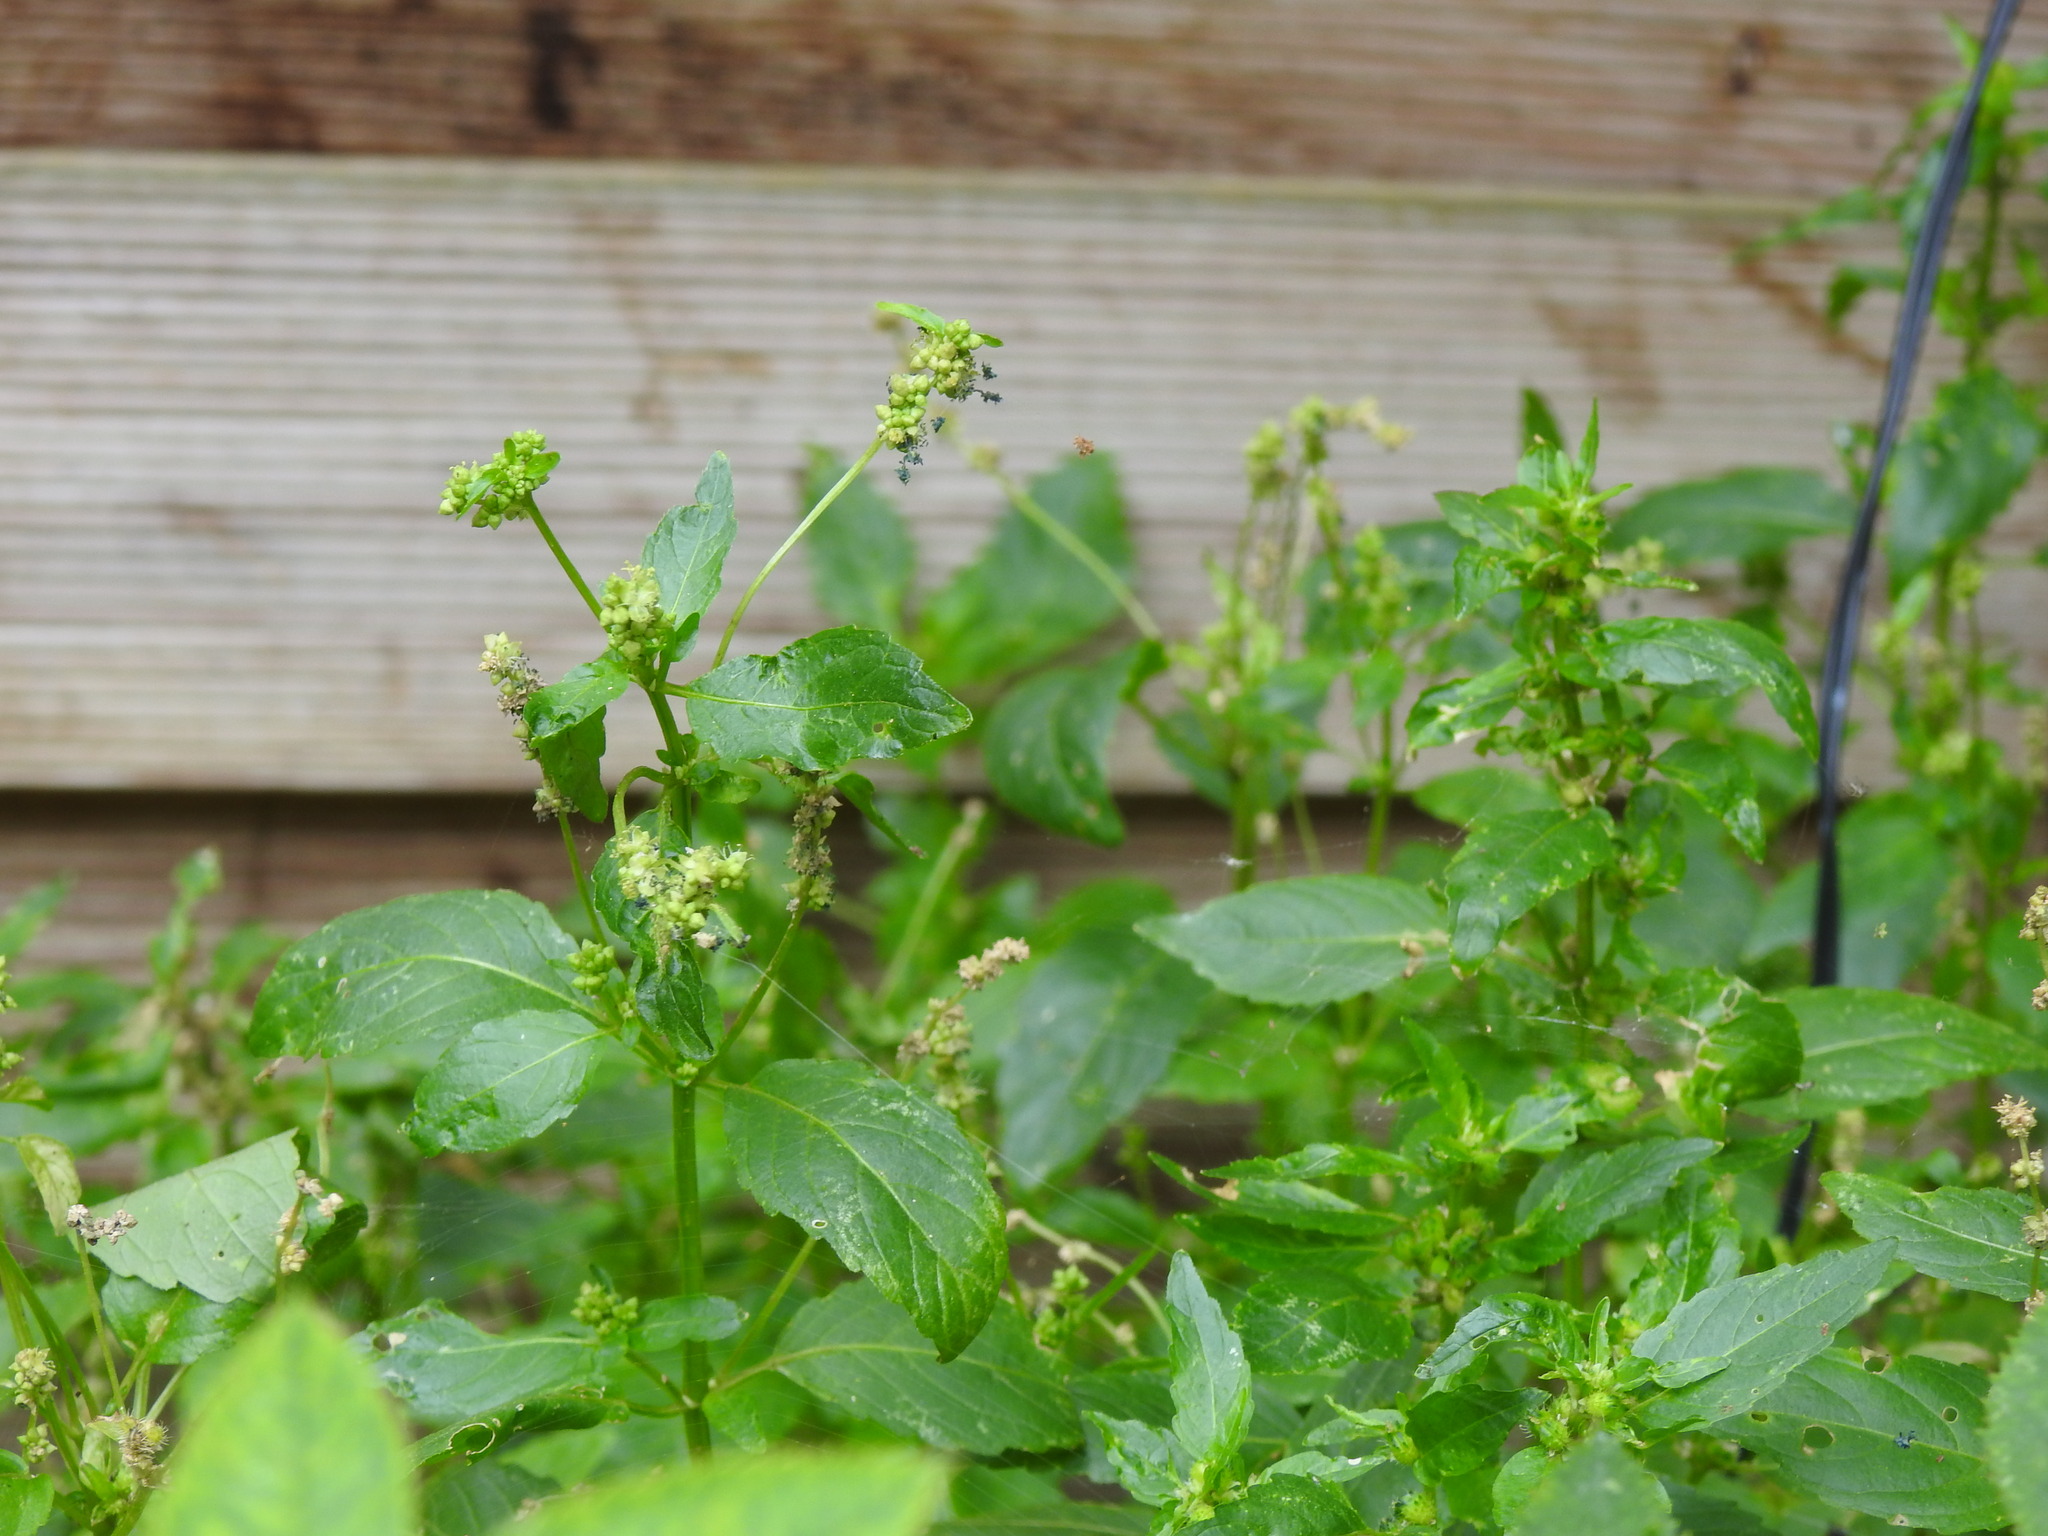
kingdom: Plantae
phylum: Tracheophyta
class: Magnoliopsida
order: Malpighiales
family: Euphorbiaceae
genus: Mercurialis
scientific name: Mercurialis annua
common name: Annual mercury
